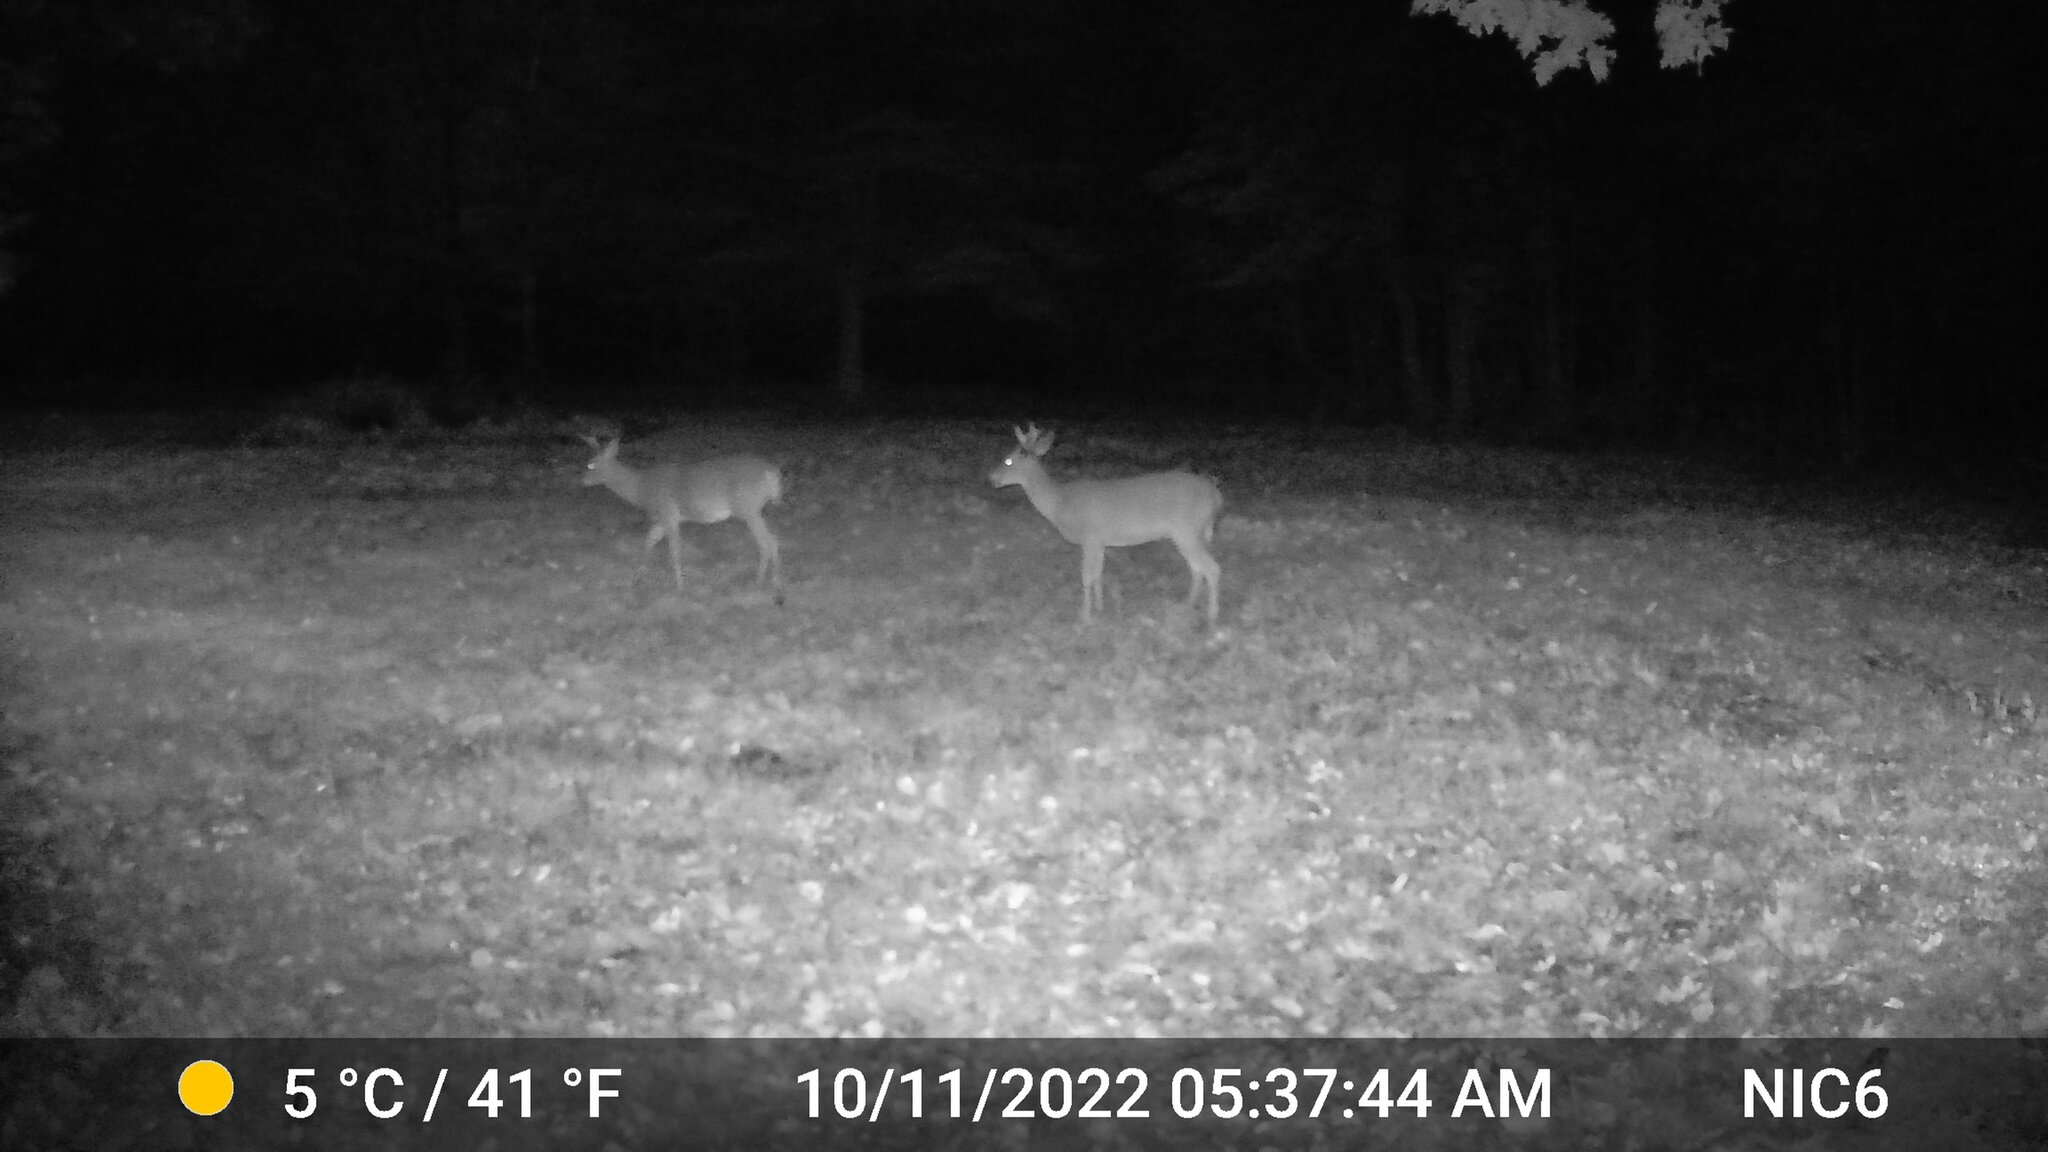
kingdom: Animalia
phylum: Chordata
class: Mammalia
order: Artiodactyla
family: Cervidae
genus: Odocoileus
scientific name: Odocoileus virginianus
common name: White-tailed deer
